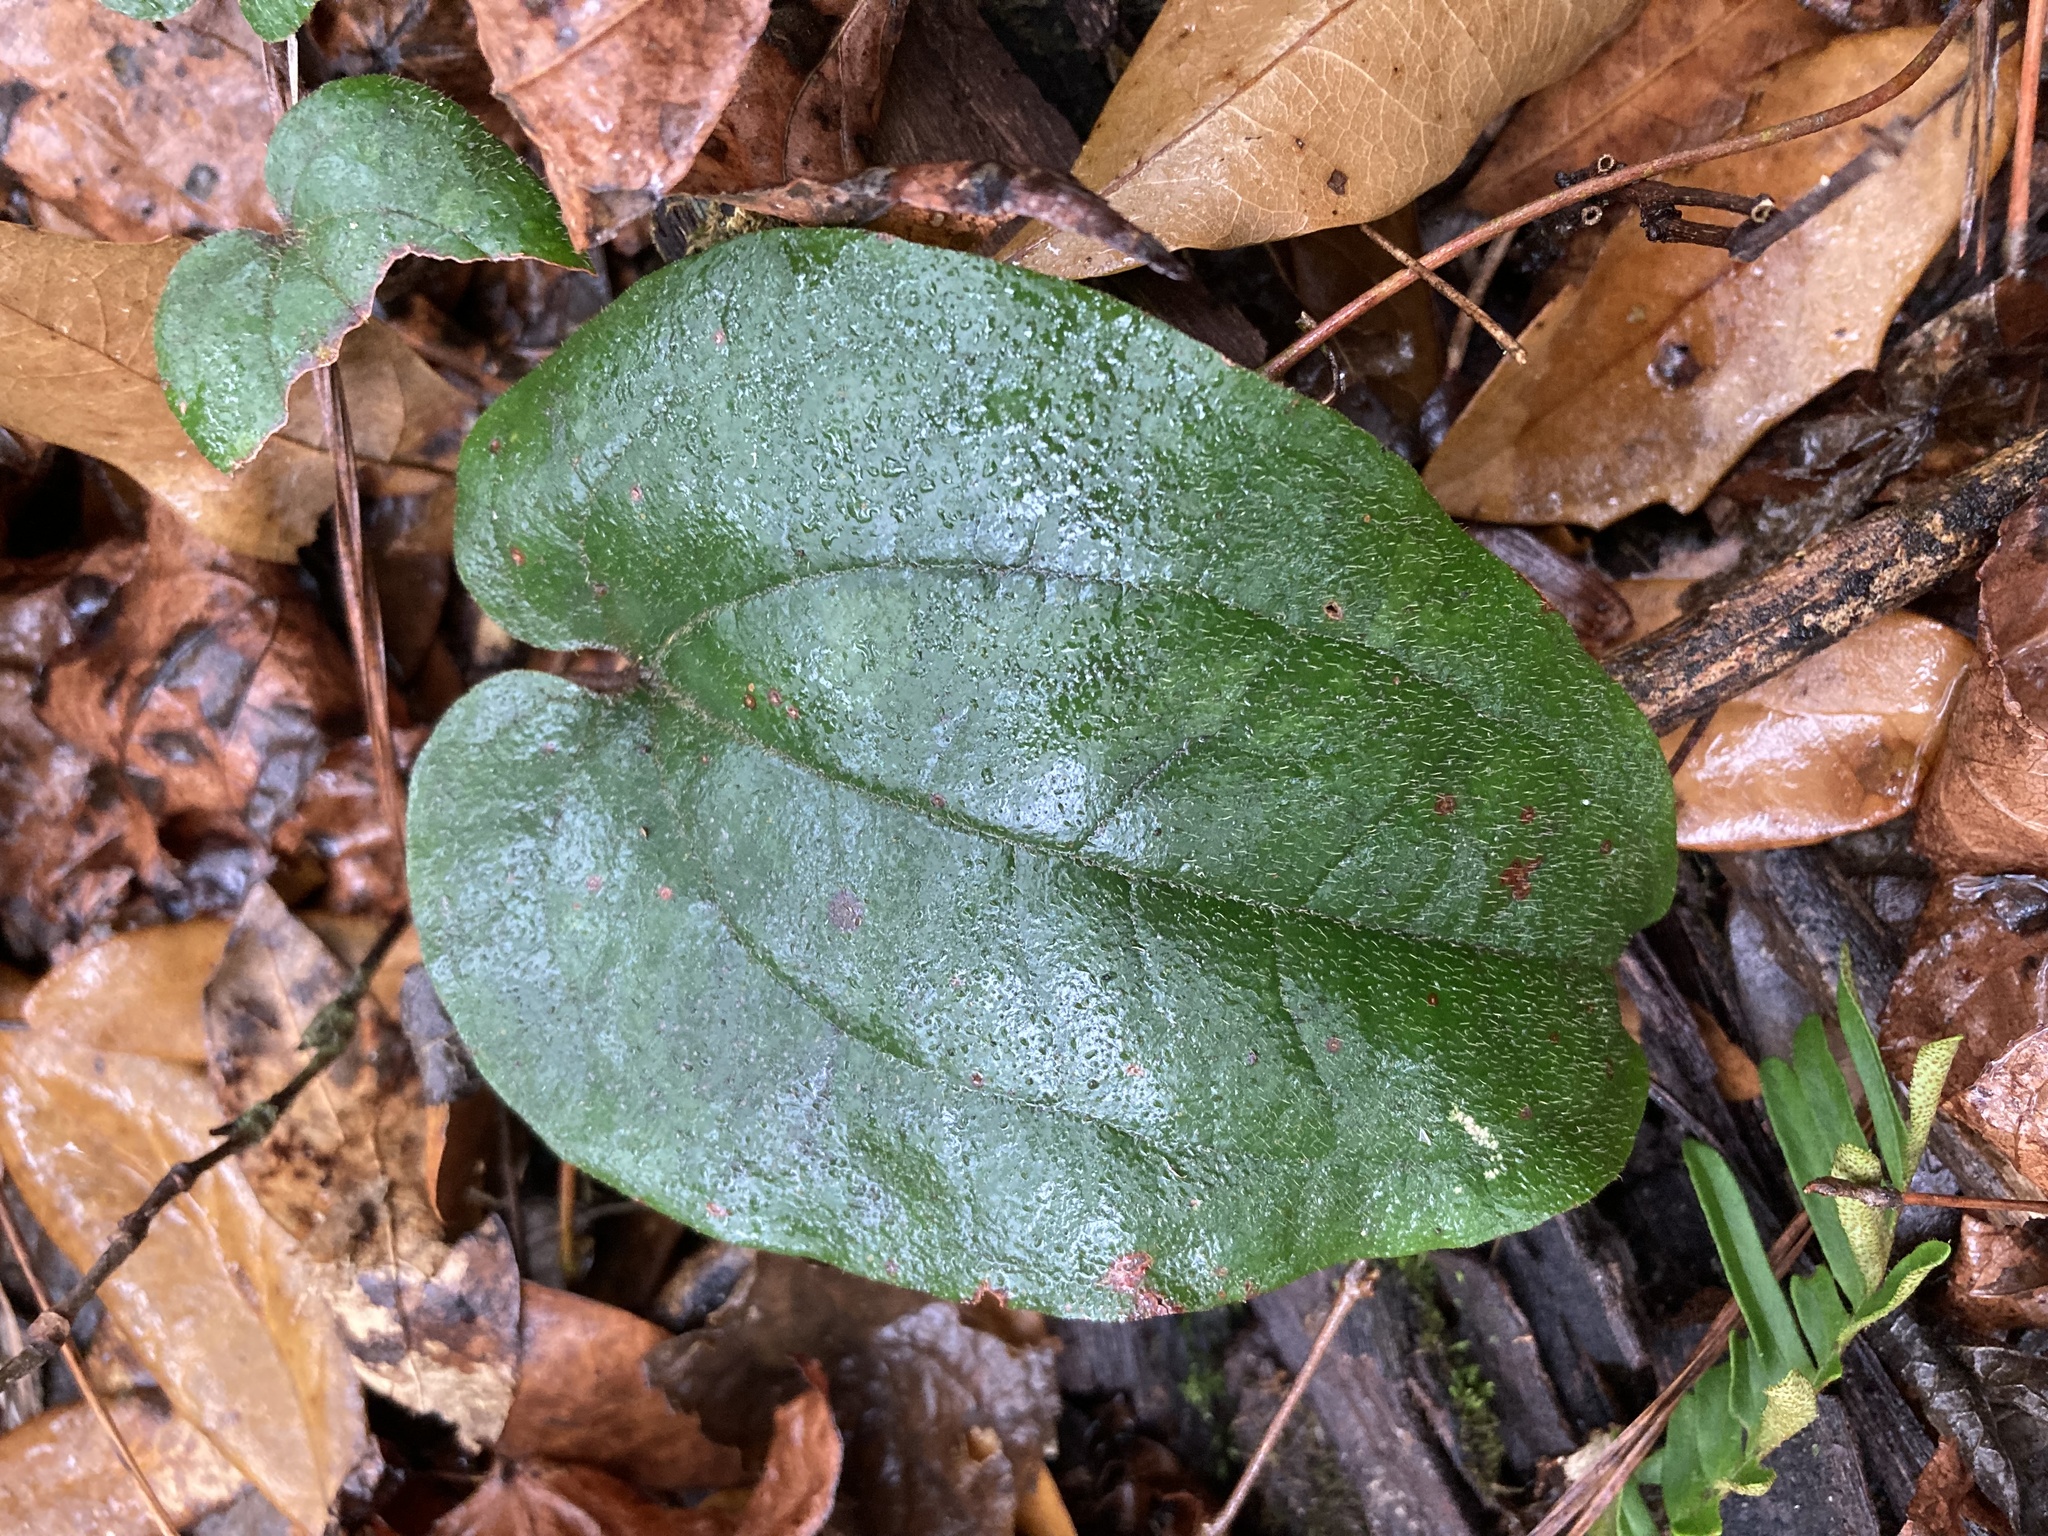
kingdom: Plantae
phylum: Tracheophyta
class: Liliopsida
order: Liliales
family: Smilacaceae
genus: Smilax
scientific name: Smilax pumila
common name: Sarsaparilla-vine
